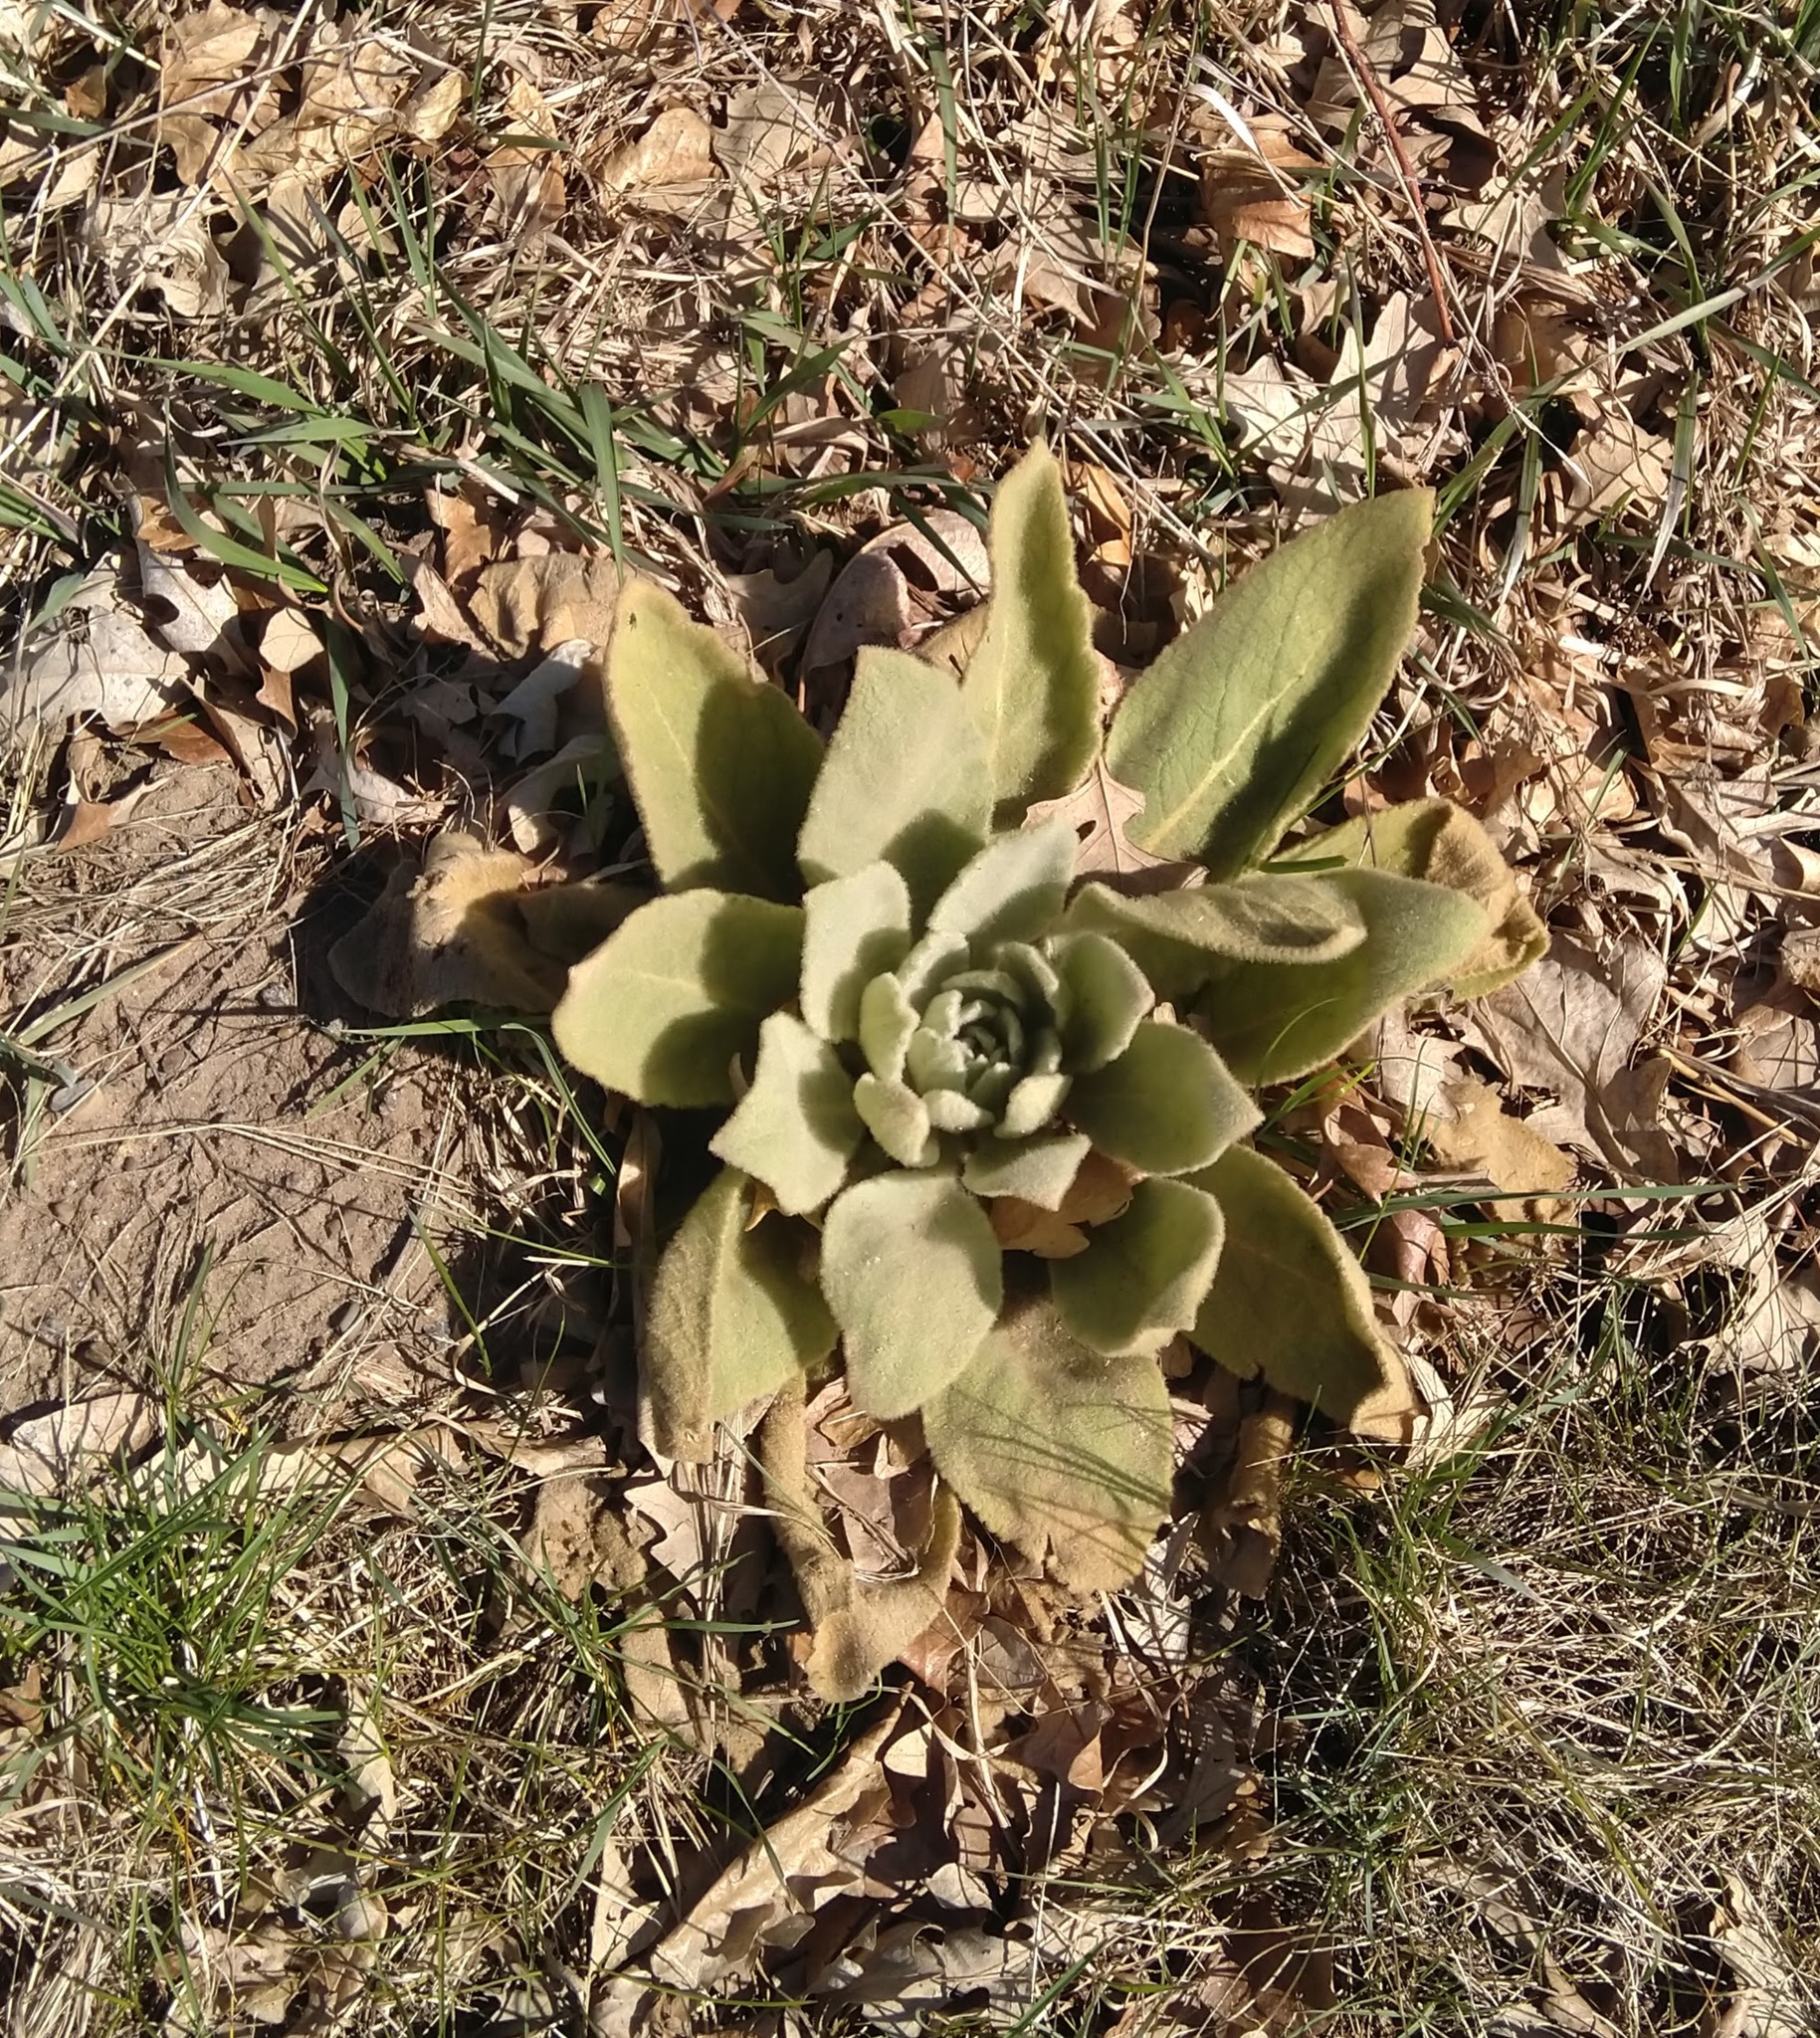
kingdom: Plantae
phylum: Tracheophyta
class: Magnoliopsida
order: Lamiales
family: Scrophulariaceae
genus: Verbascum
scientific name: Verbascum thapsus
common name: Common mullein
